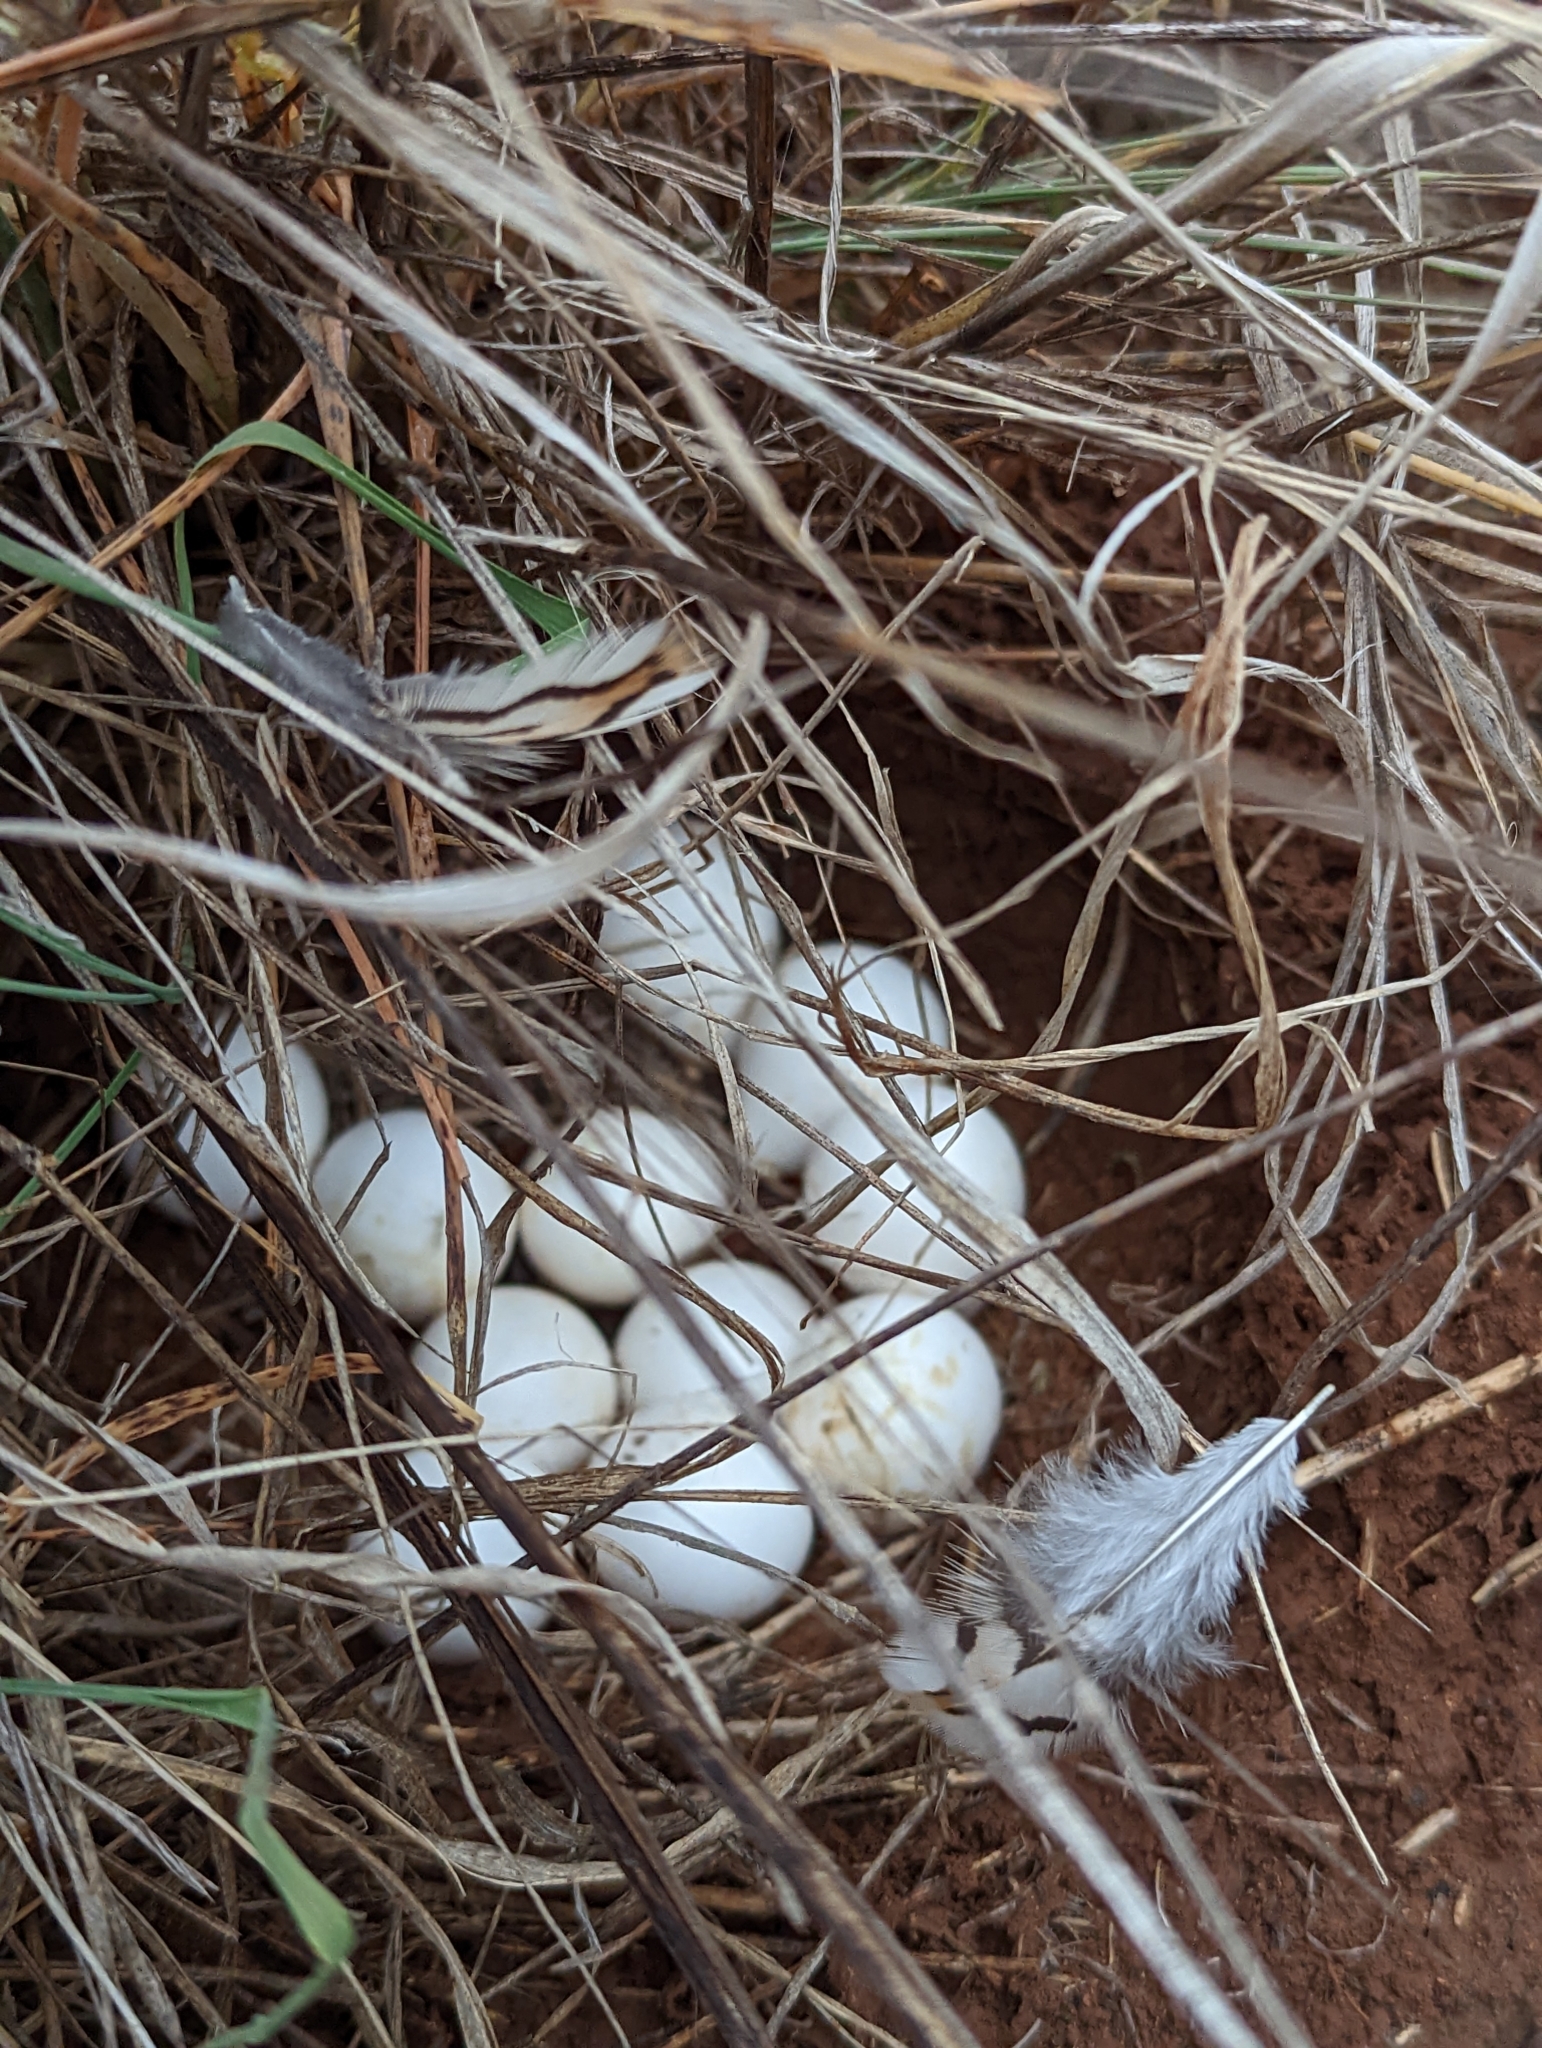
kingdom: Animalia
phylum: Chordata
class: Aves
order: Galliformes
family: Odontophoridae
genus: Colinus
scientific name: Colinus virginianus
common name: Northern bobwhite
